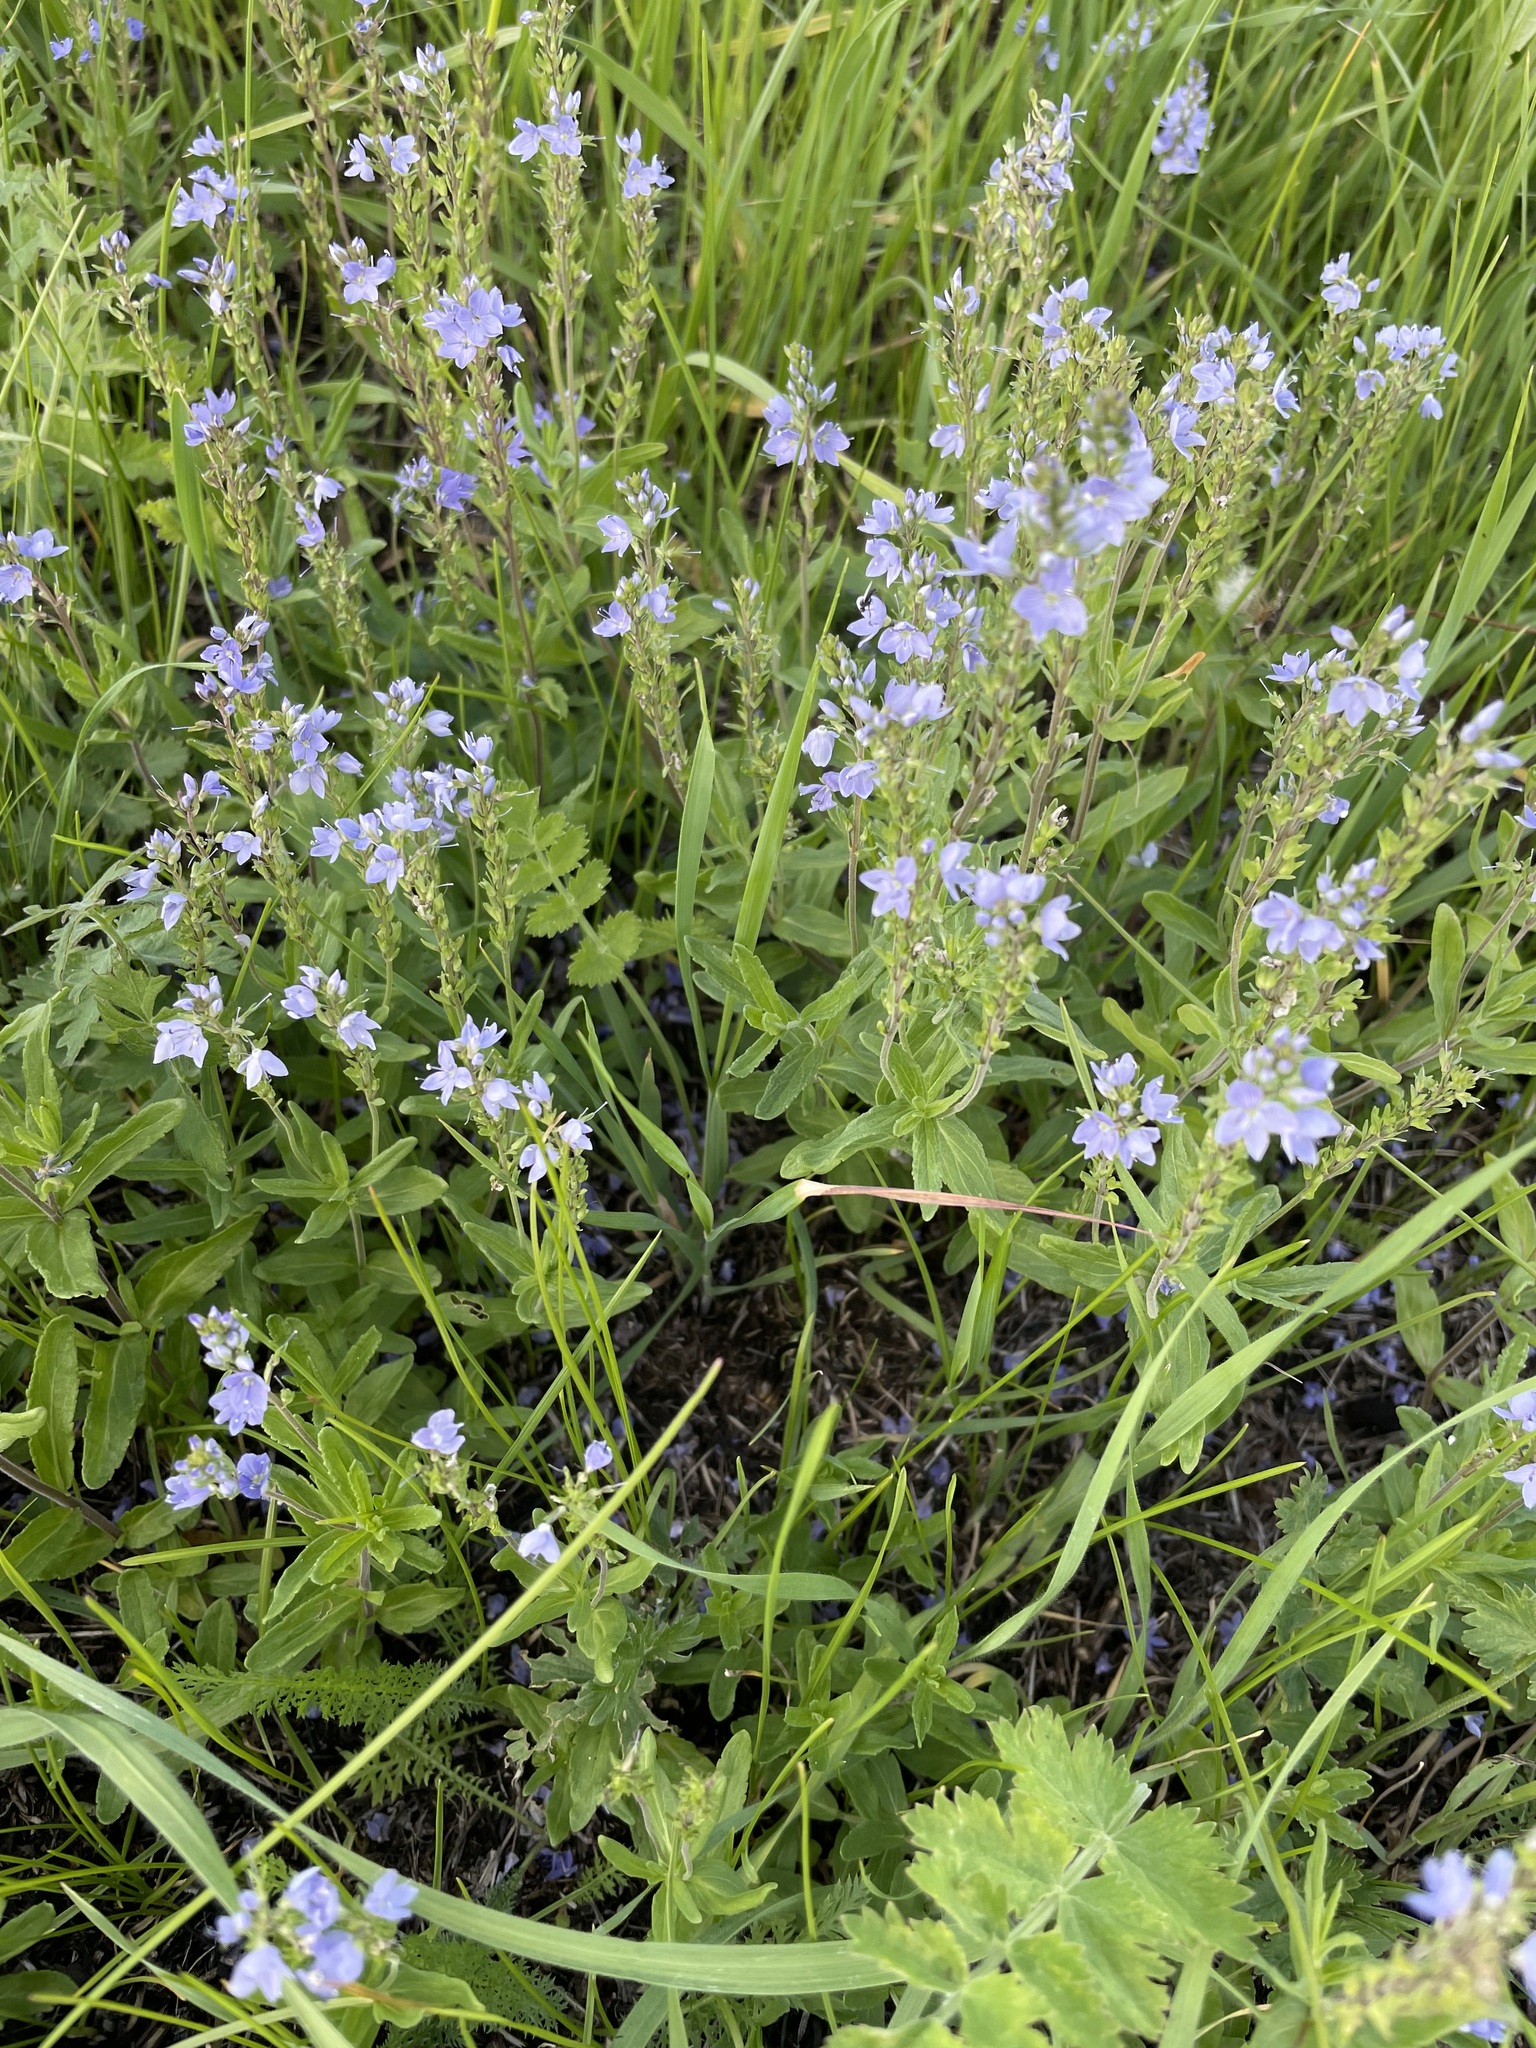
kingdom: Plantae
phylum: Tracheophyta
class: Magnoliopsida
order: Lamiales
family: Plantaginaceae
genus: Veronica
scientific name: Veronica prostrata
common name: Prostrate speedwell
